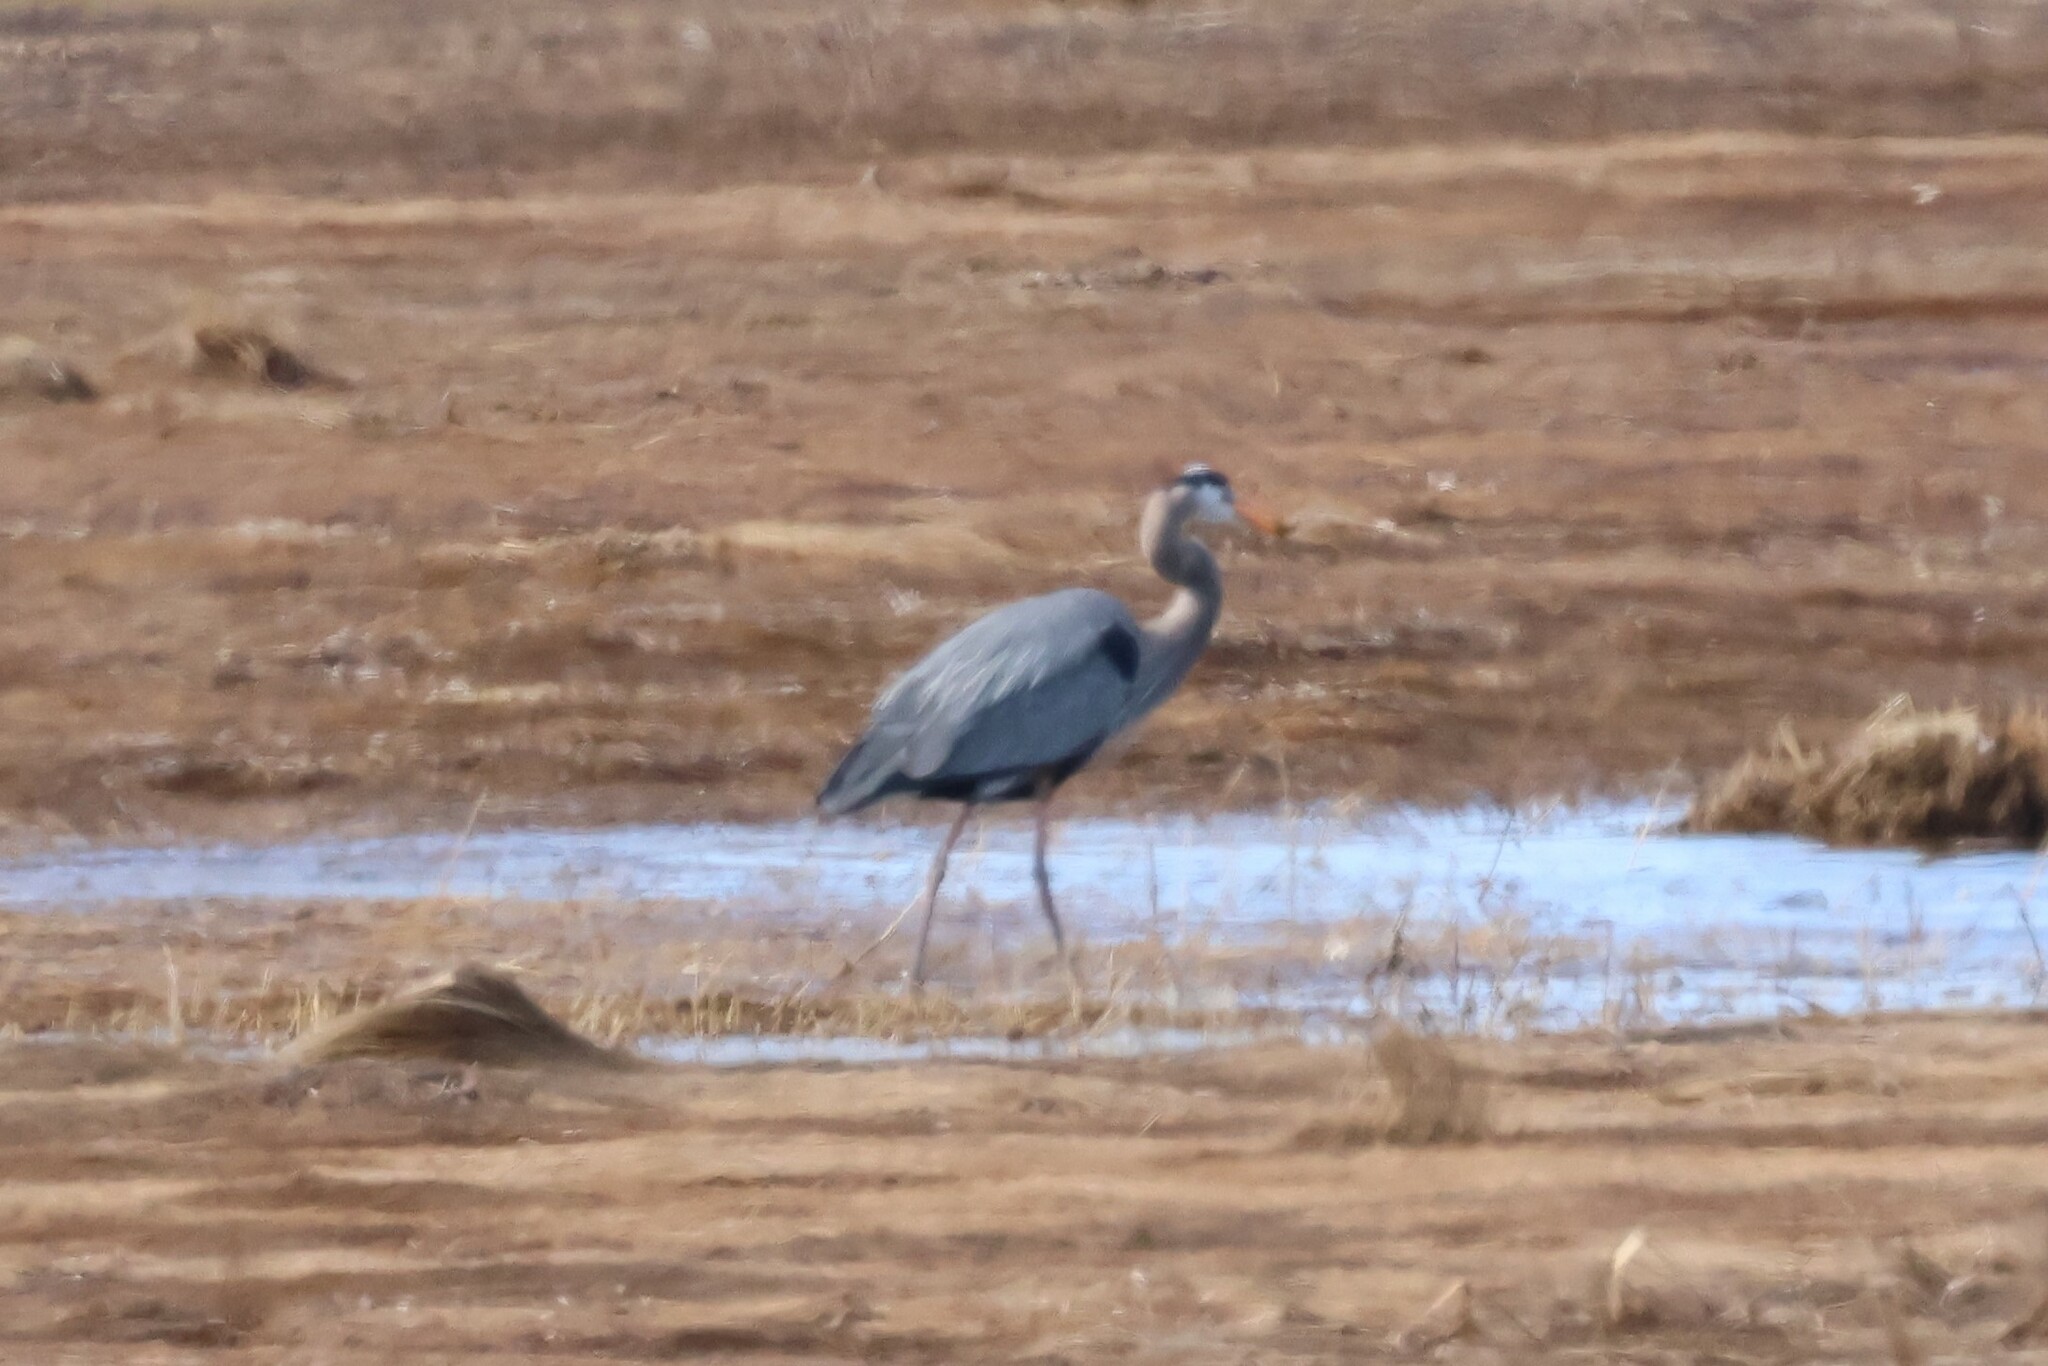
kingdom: Animalia
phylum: Chordata
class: Aves
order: Pelecaniformes
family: Ardeidae
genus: Ardea
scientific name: Ardea herodias
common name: Great blue heron
